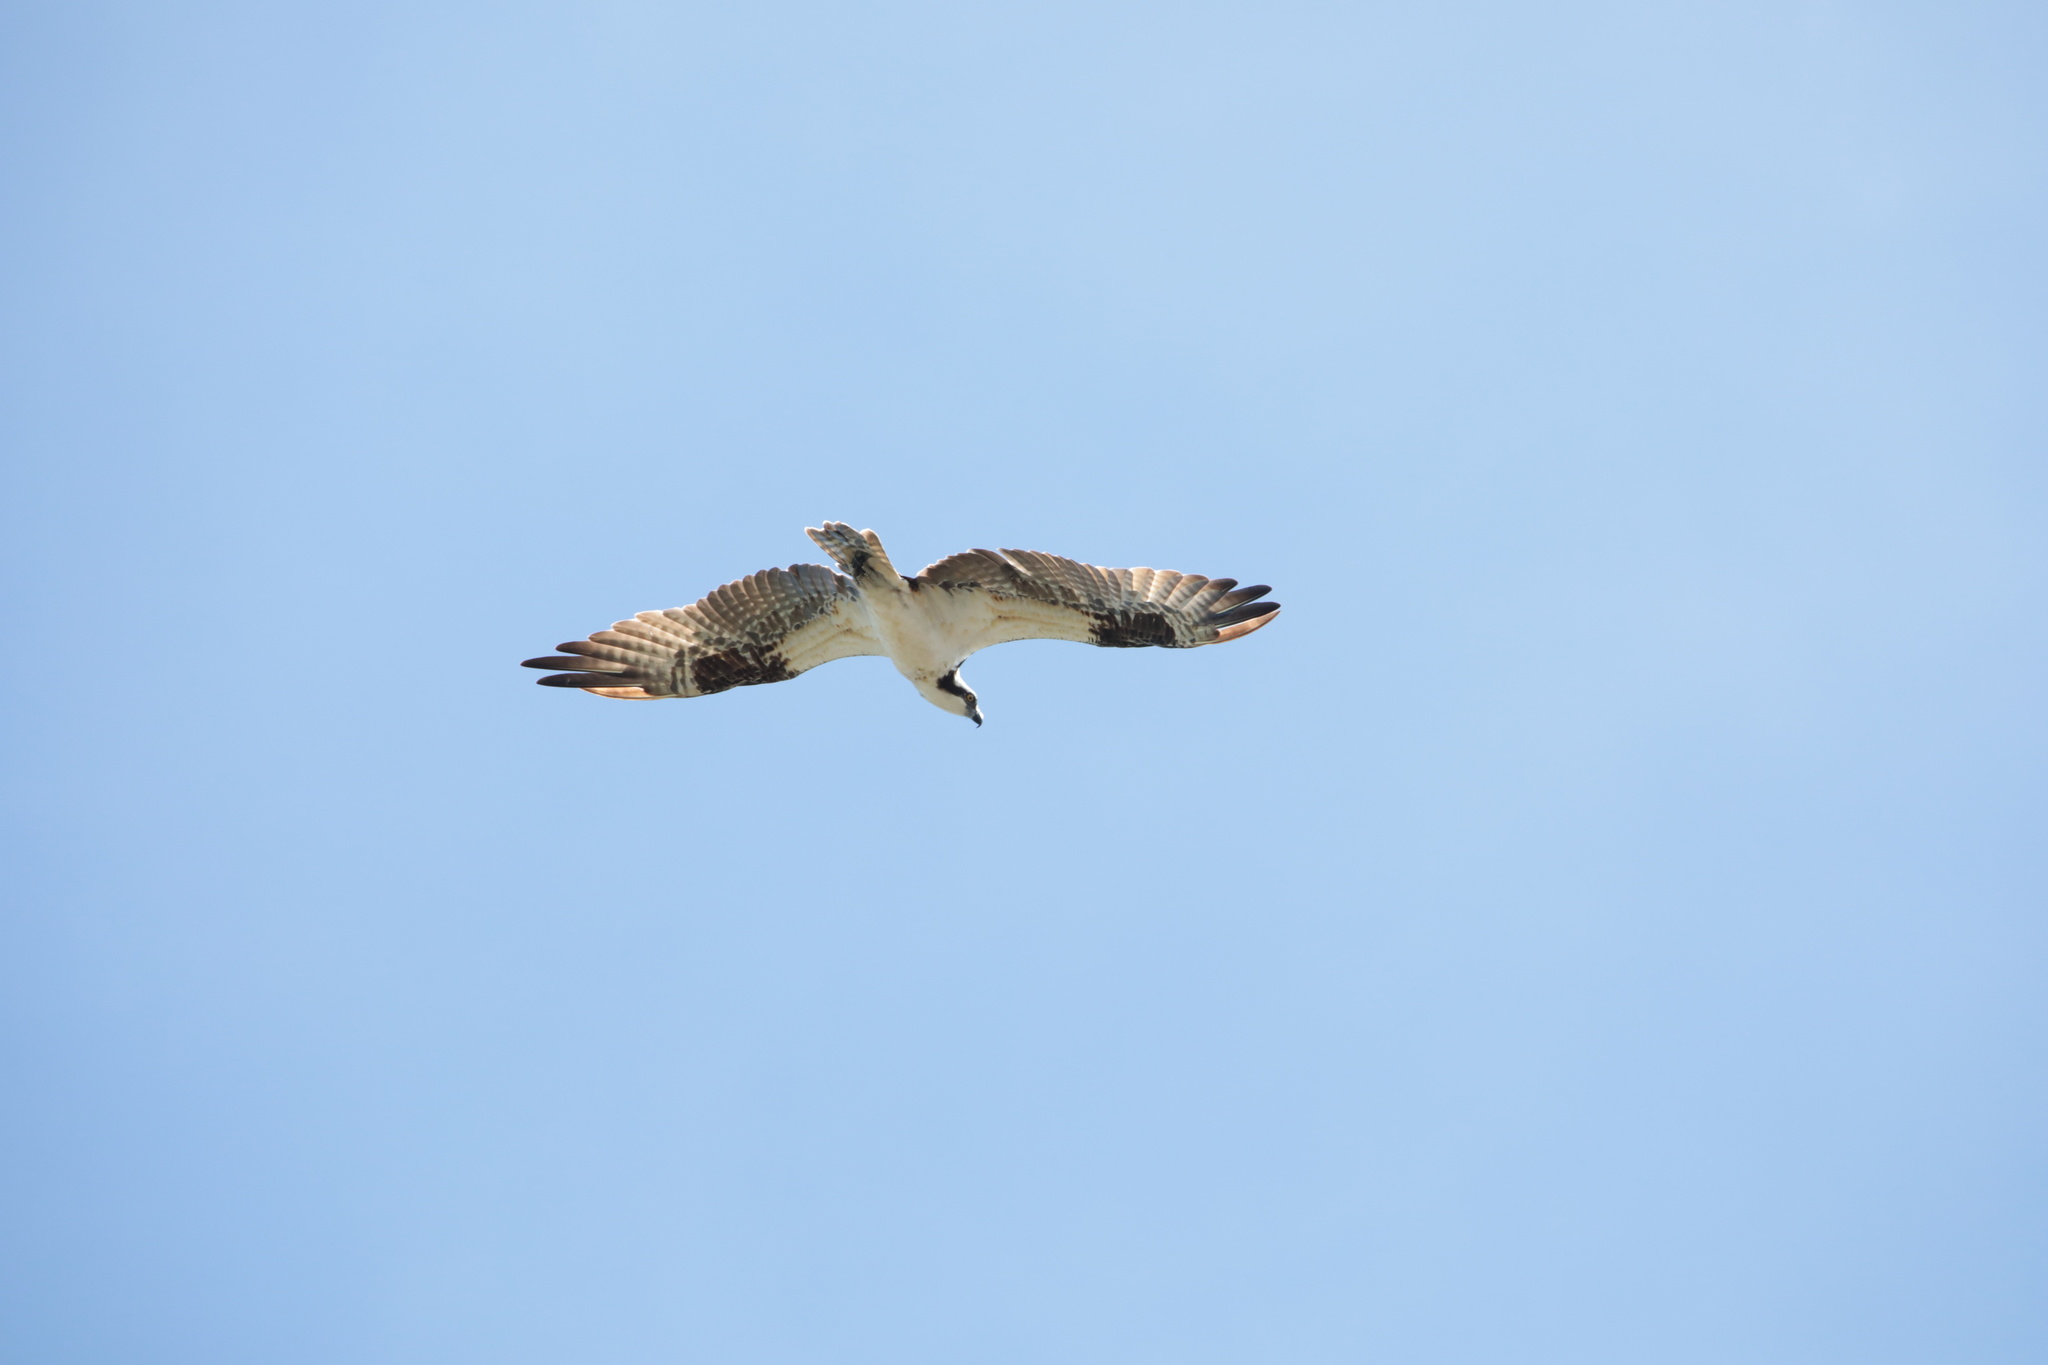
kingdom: Animalia
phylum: Chordata
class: Aves
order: Accipitriformes
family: Pandionidae
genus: Pandion
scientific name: Pandion haliaetus
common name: Osprey
